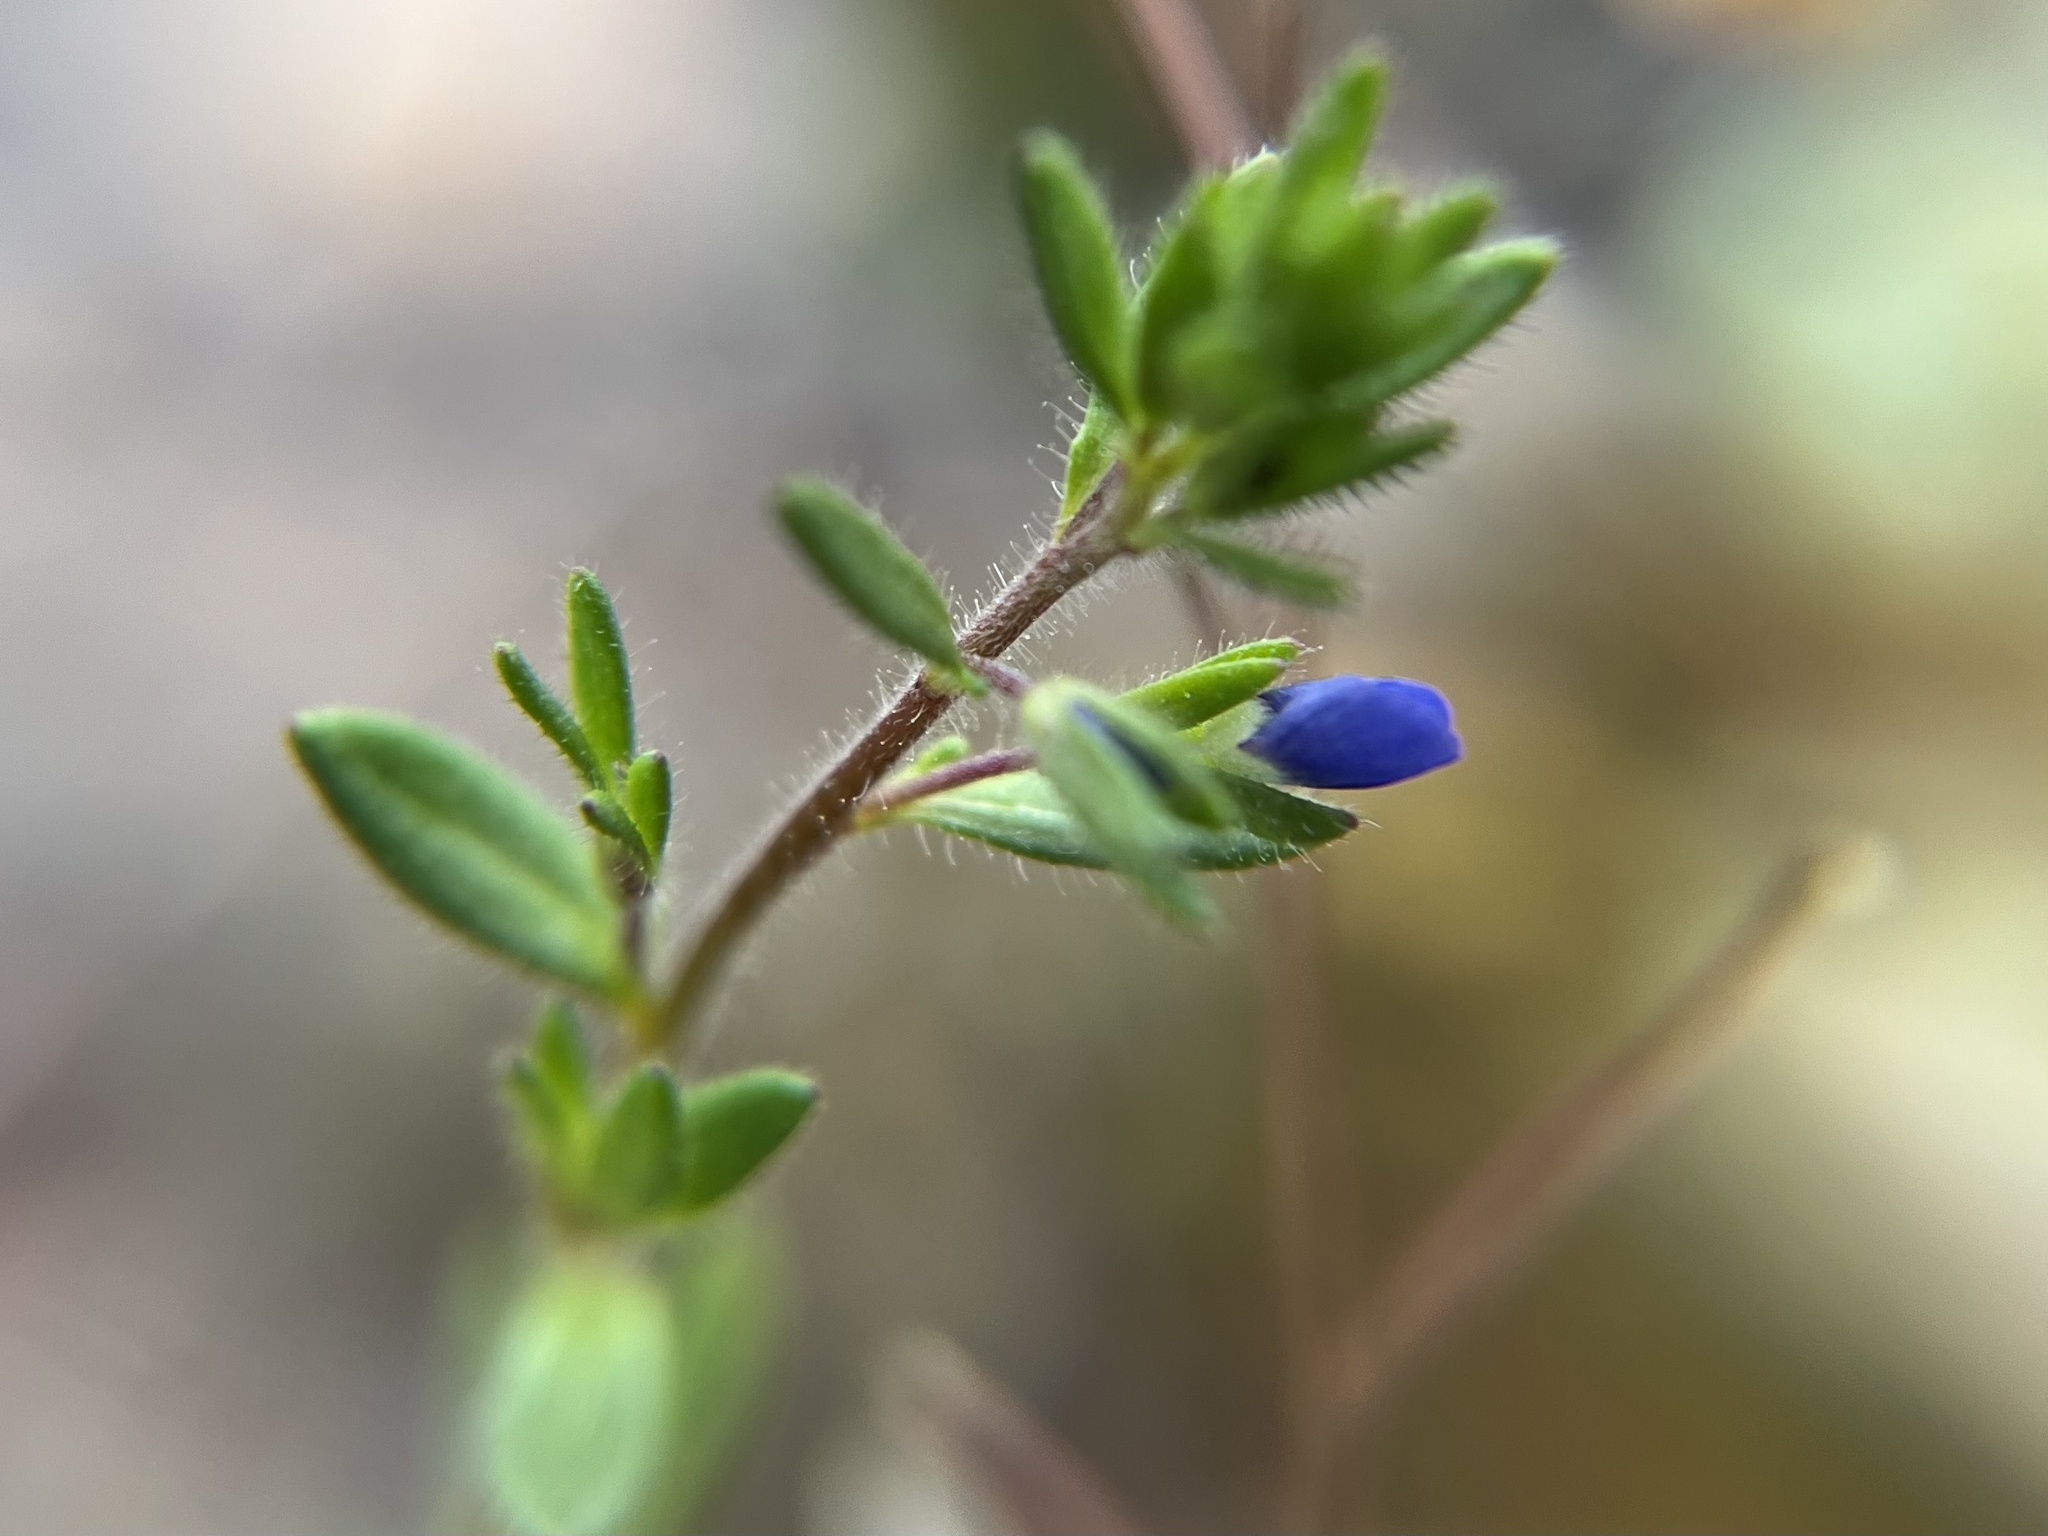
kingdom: Plantae
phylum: Tracheophyta
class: Magnoliopsida
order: Lamiales
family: Plantaginaceae
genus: Veronica
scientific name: Veronica verna
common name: Spring speedwell
